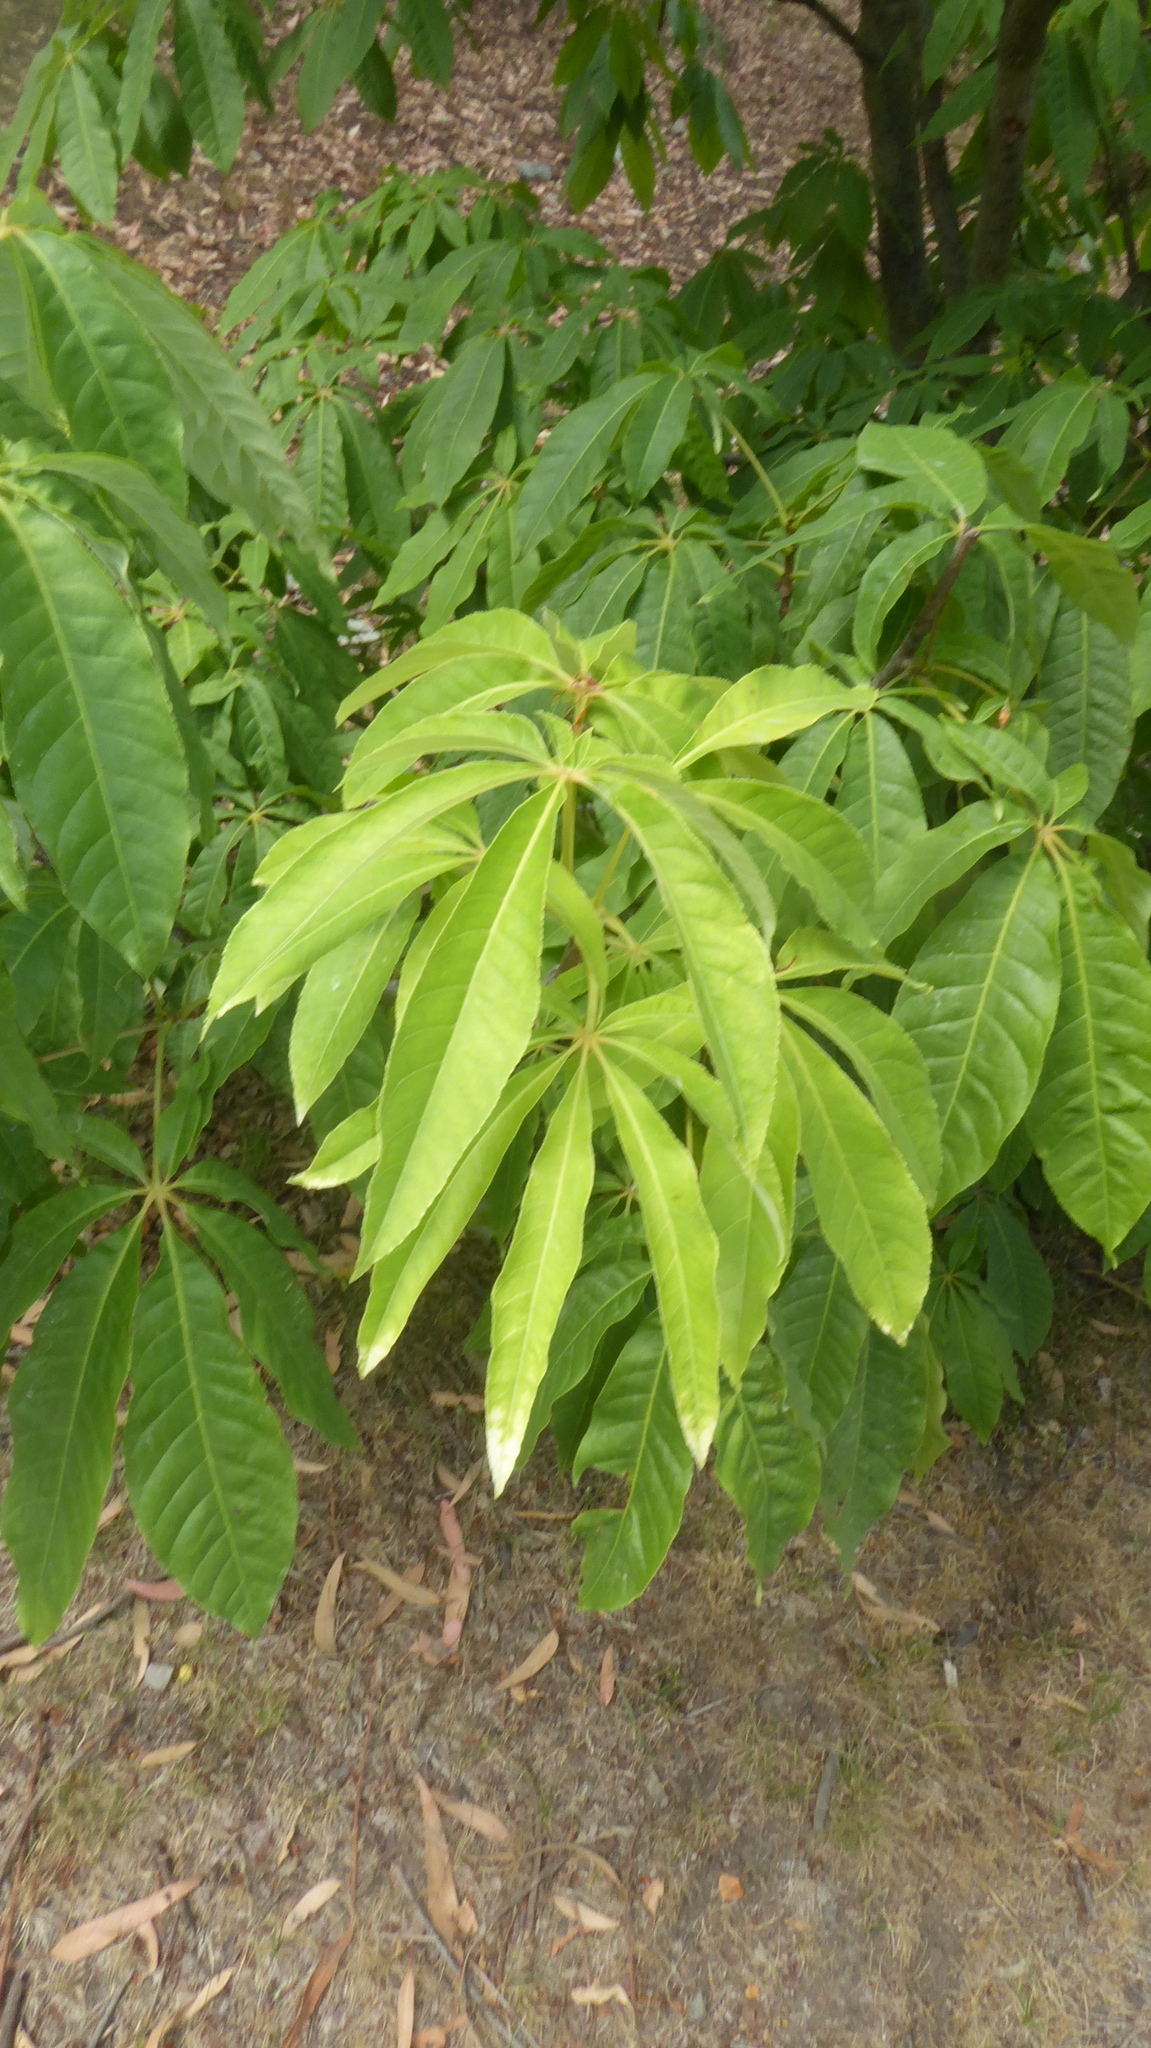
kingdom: Plantae
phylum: Tracheophyta
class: Magnoliopsida
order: Apiales
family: Araliaceae
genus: Schefflera
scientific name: Schefflera digitata
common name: Pate
